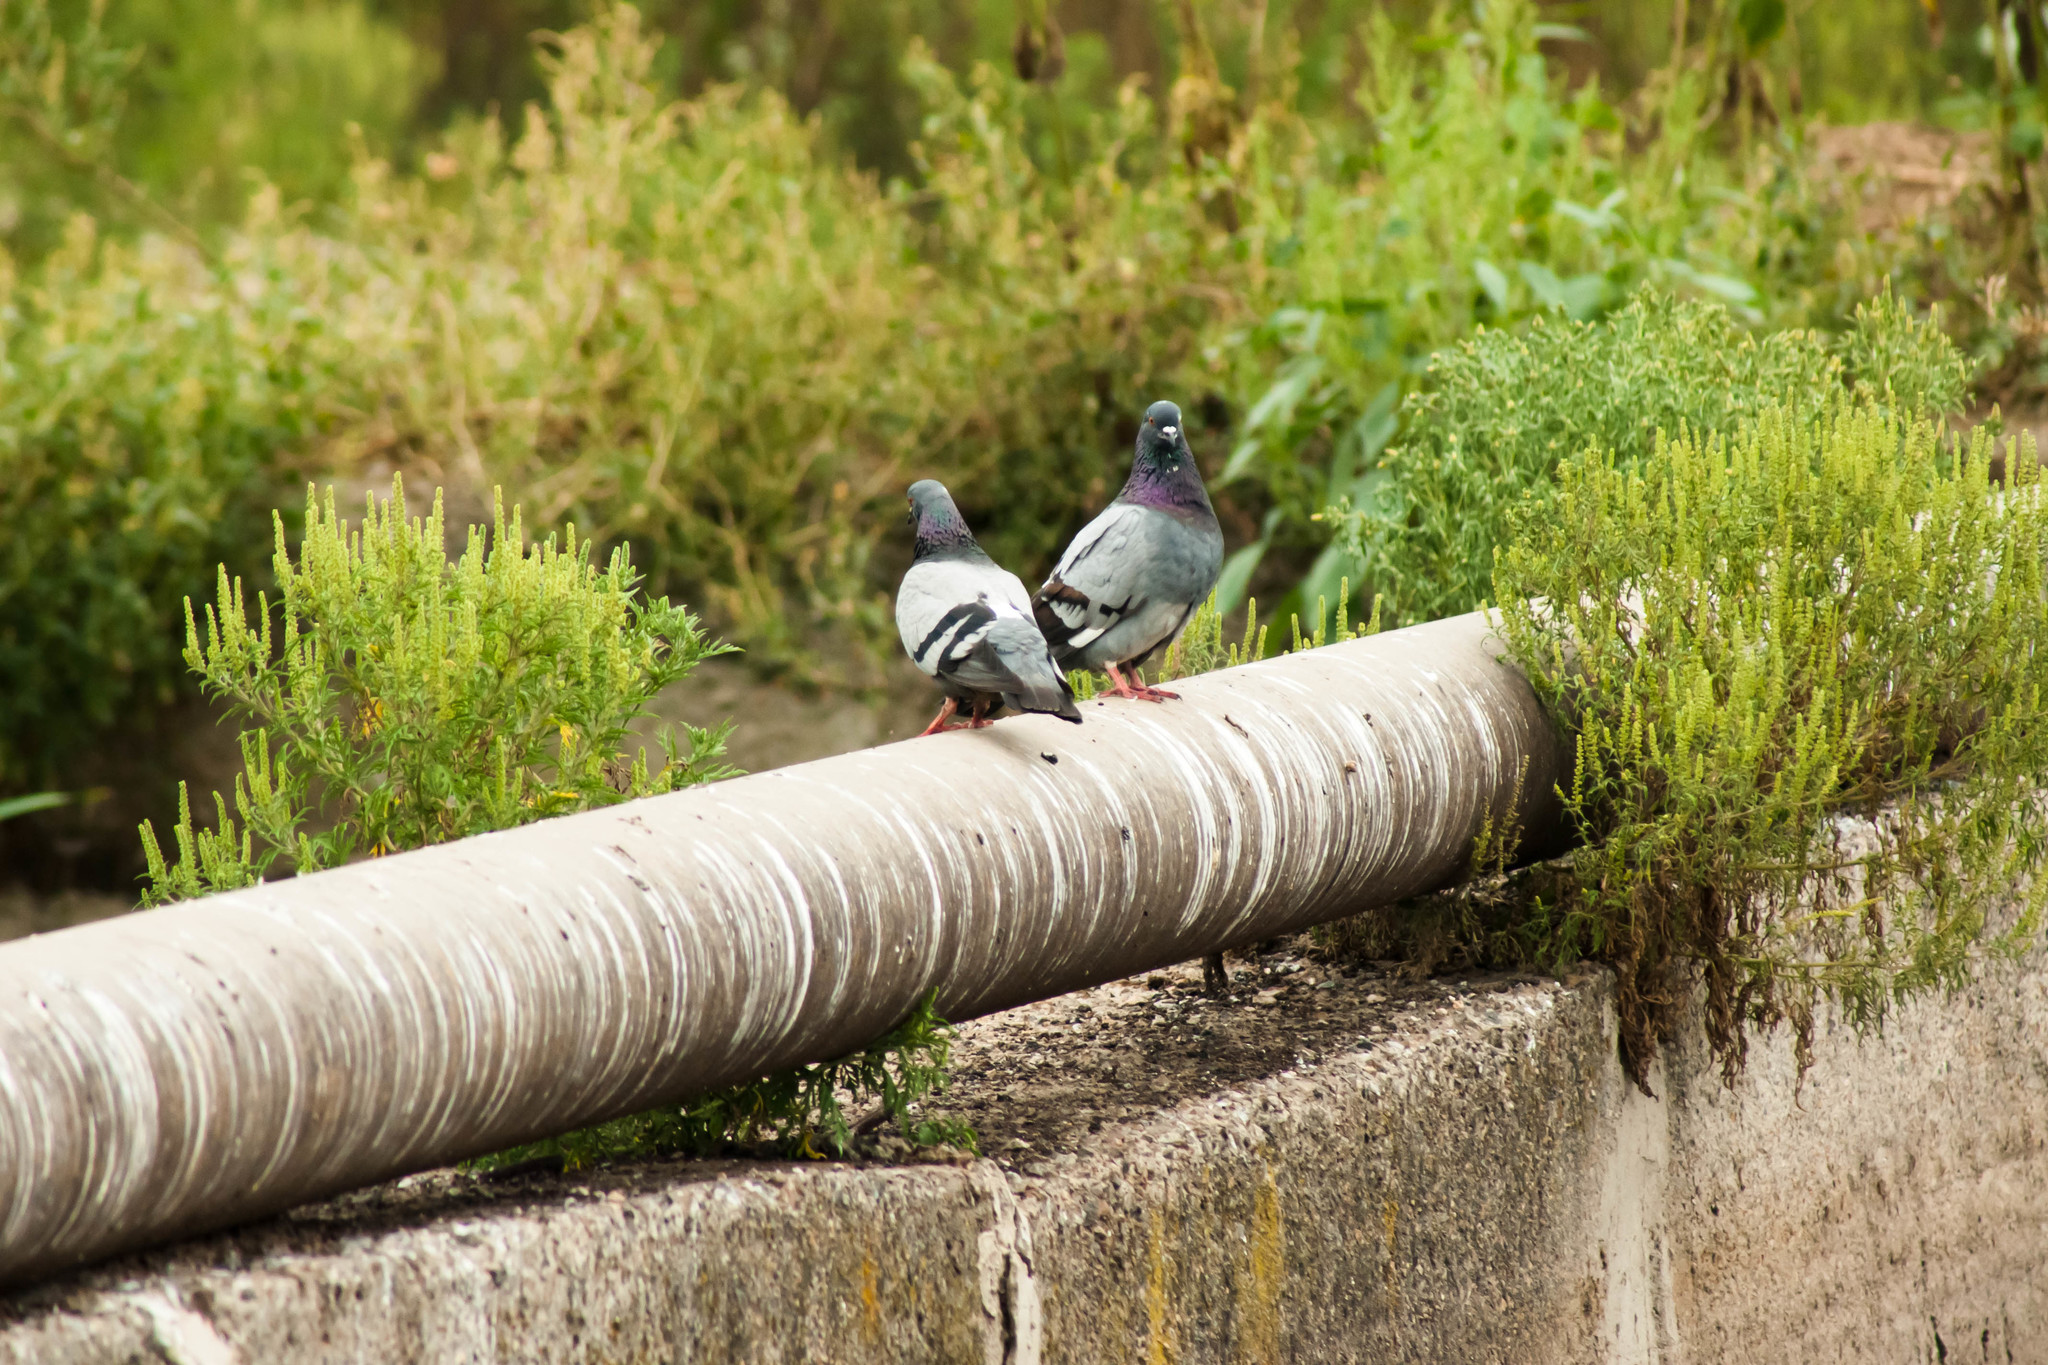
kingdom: Animalia
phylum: Chordata
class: Aves
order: Columbiformes
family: Columbidae
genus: Columba
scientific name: Columba livia
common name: Rock pigeon
